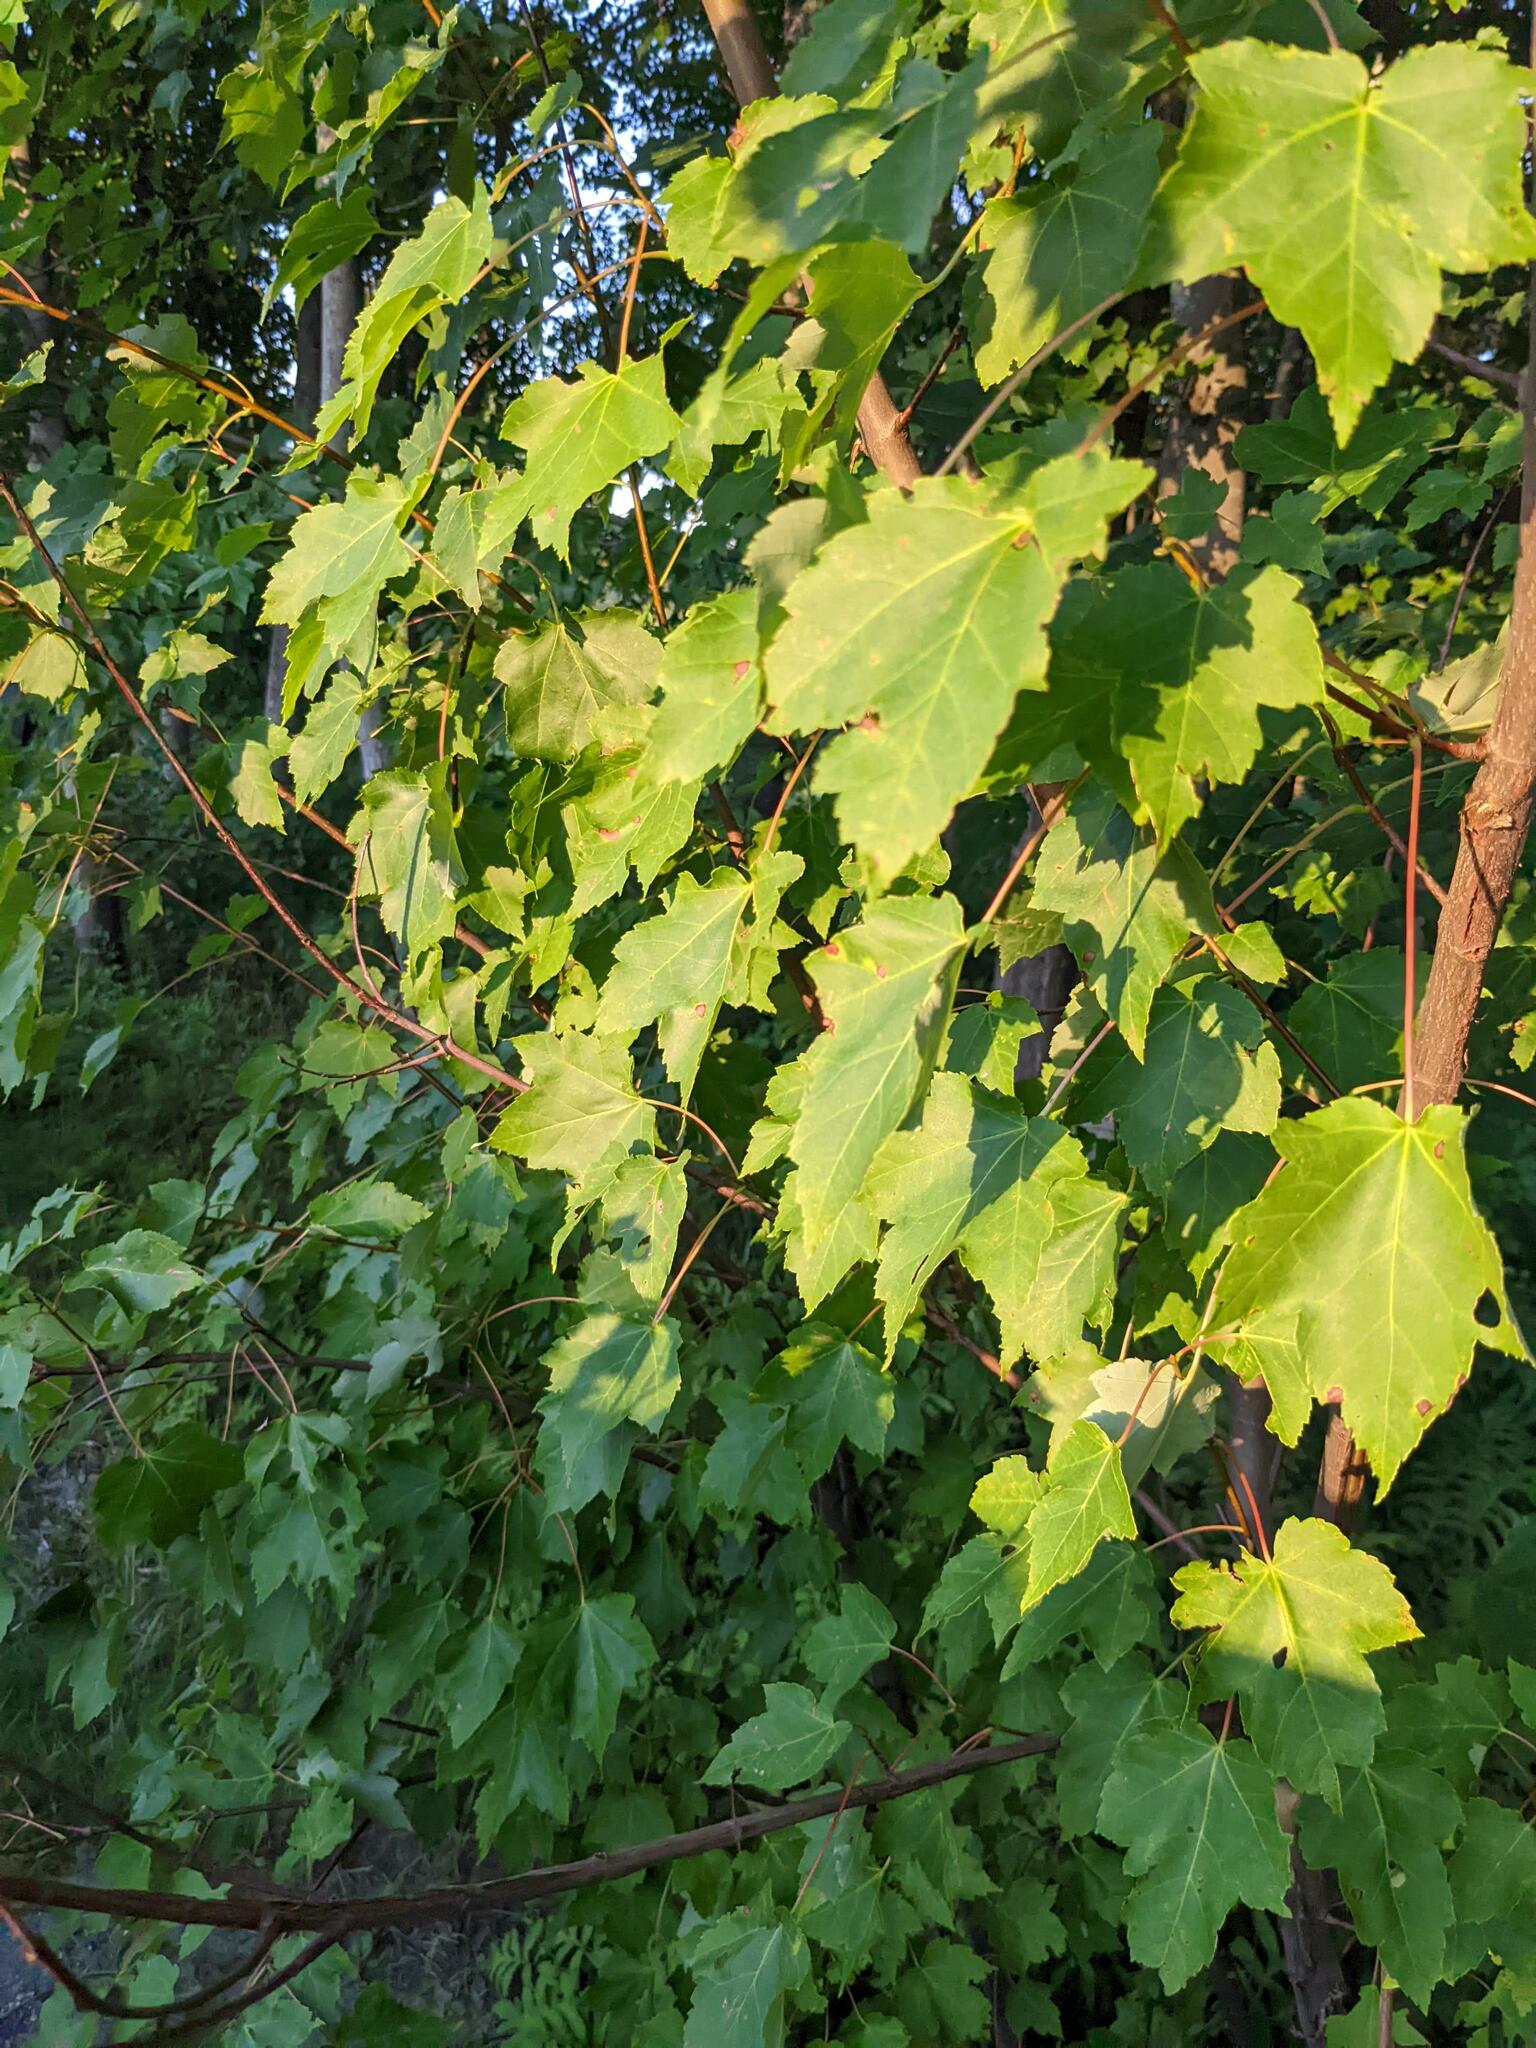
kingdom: Plantae
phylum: Tracheophyta
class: Magnoliopsida
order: Sapindales
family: Sapindaceae
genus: Acer
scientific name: Acer rubrum
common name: Red maple
